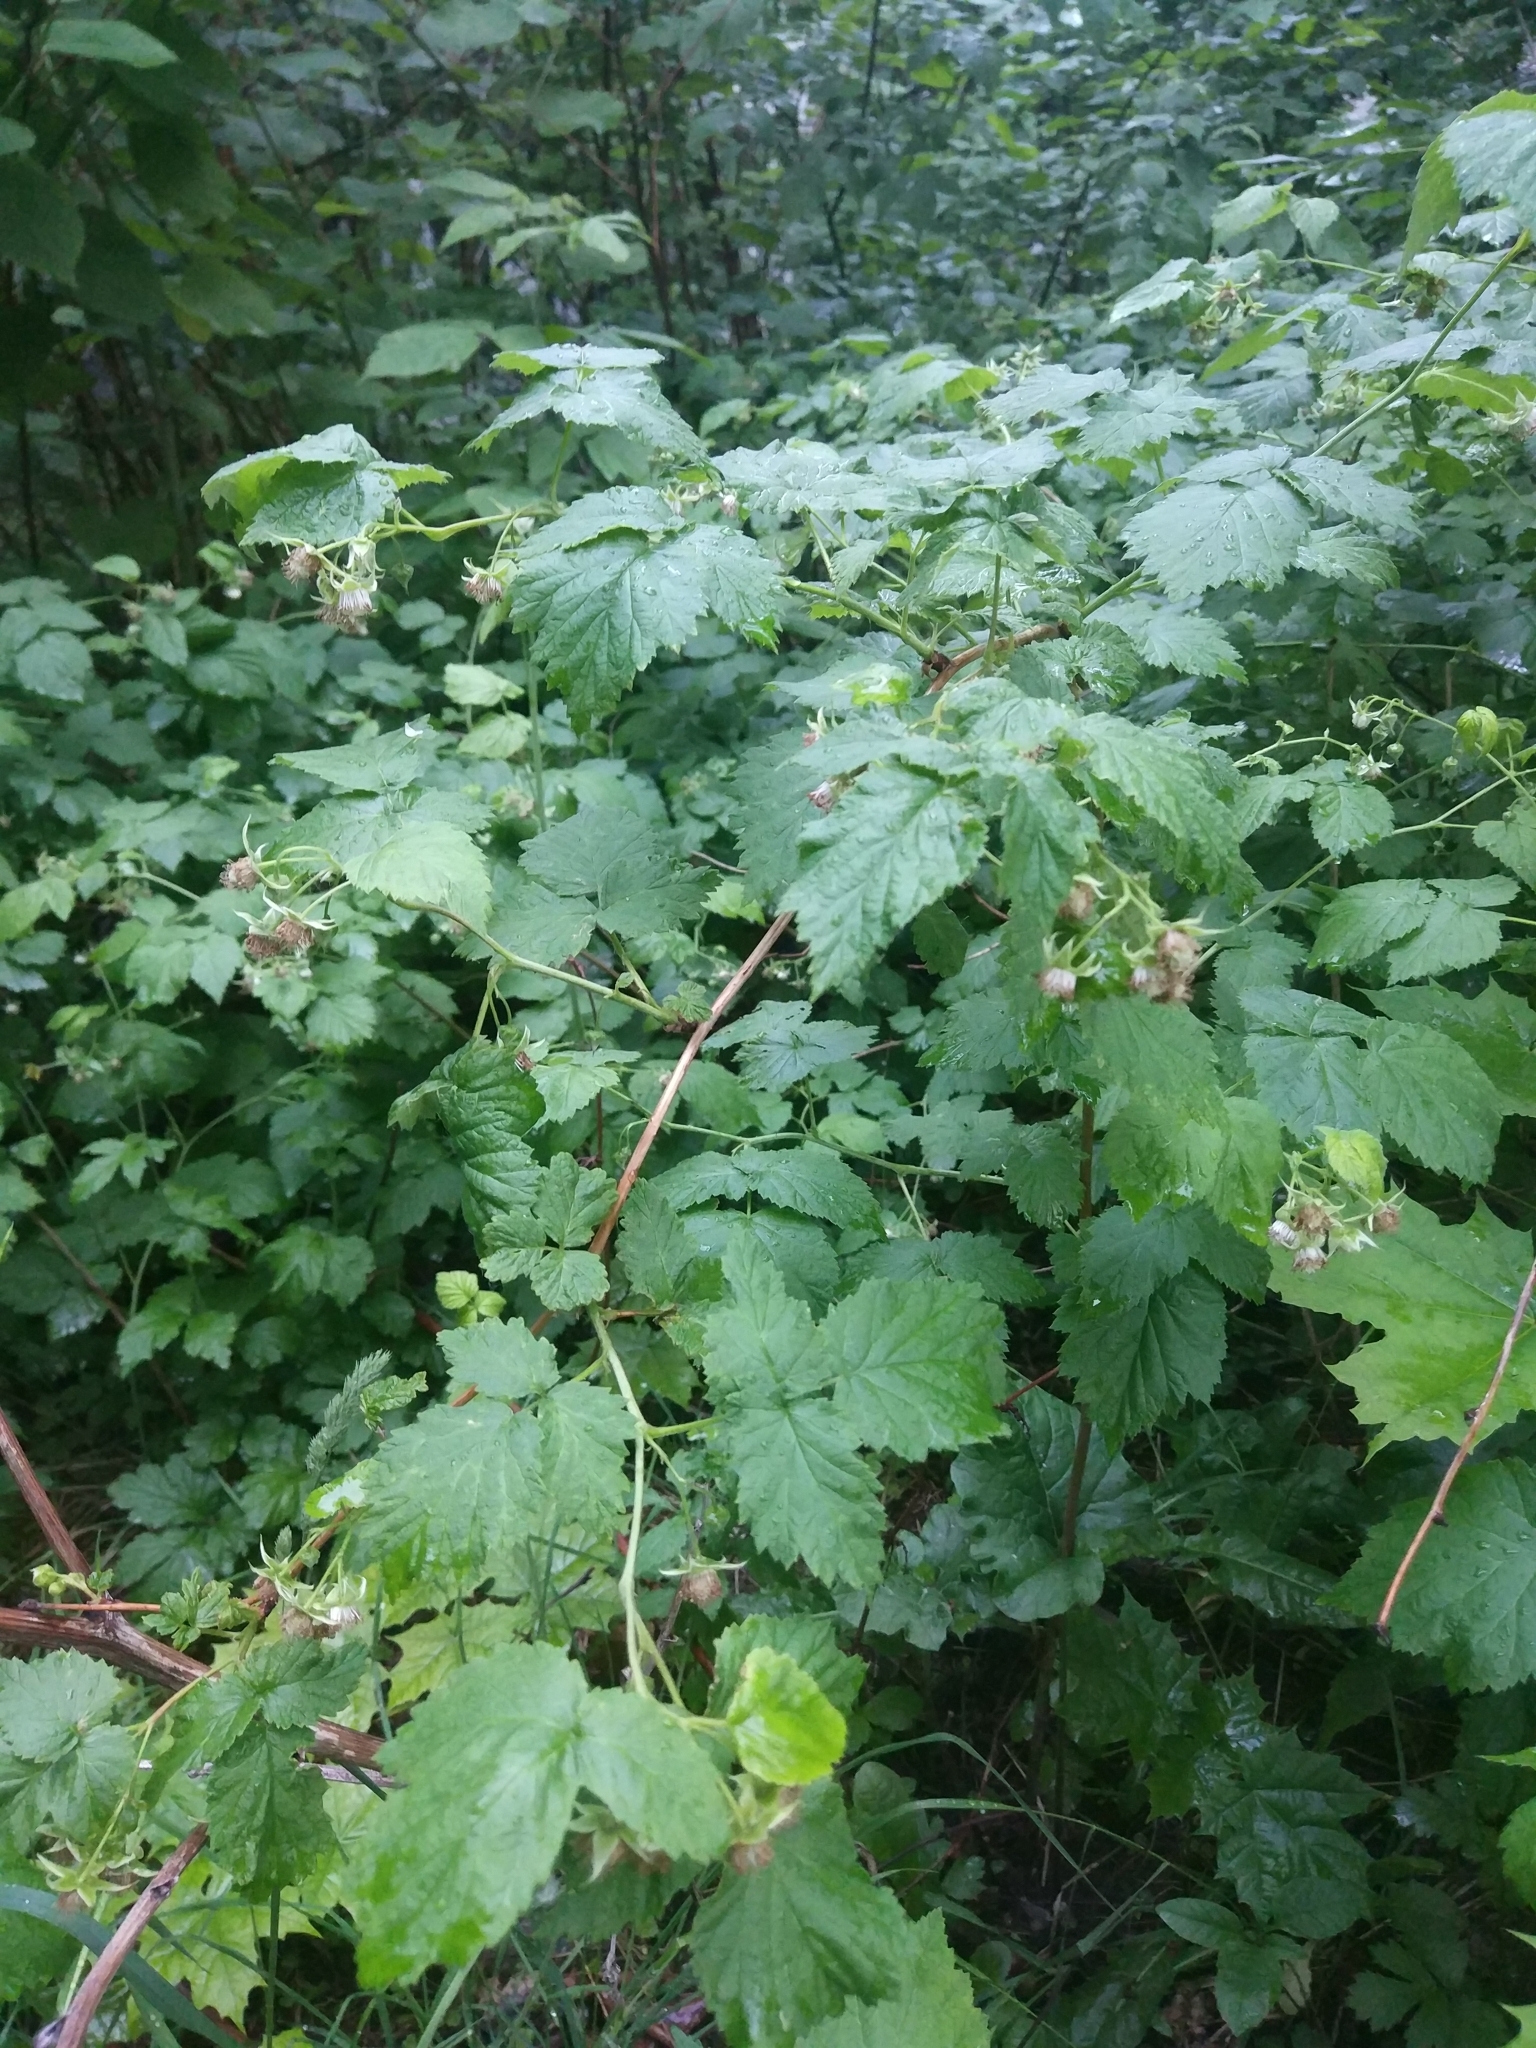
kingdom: Plantae
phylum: Tracheophyta
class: Magnoliopsida
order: Rosales
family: Rosaceae
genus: Rubus
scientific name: Rubus idaeus
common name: Raspberry
